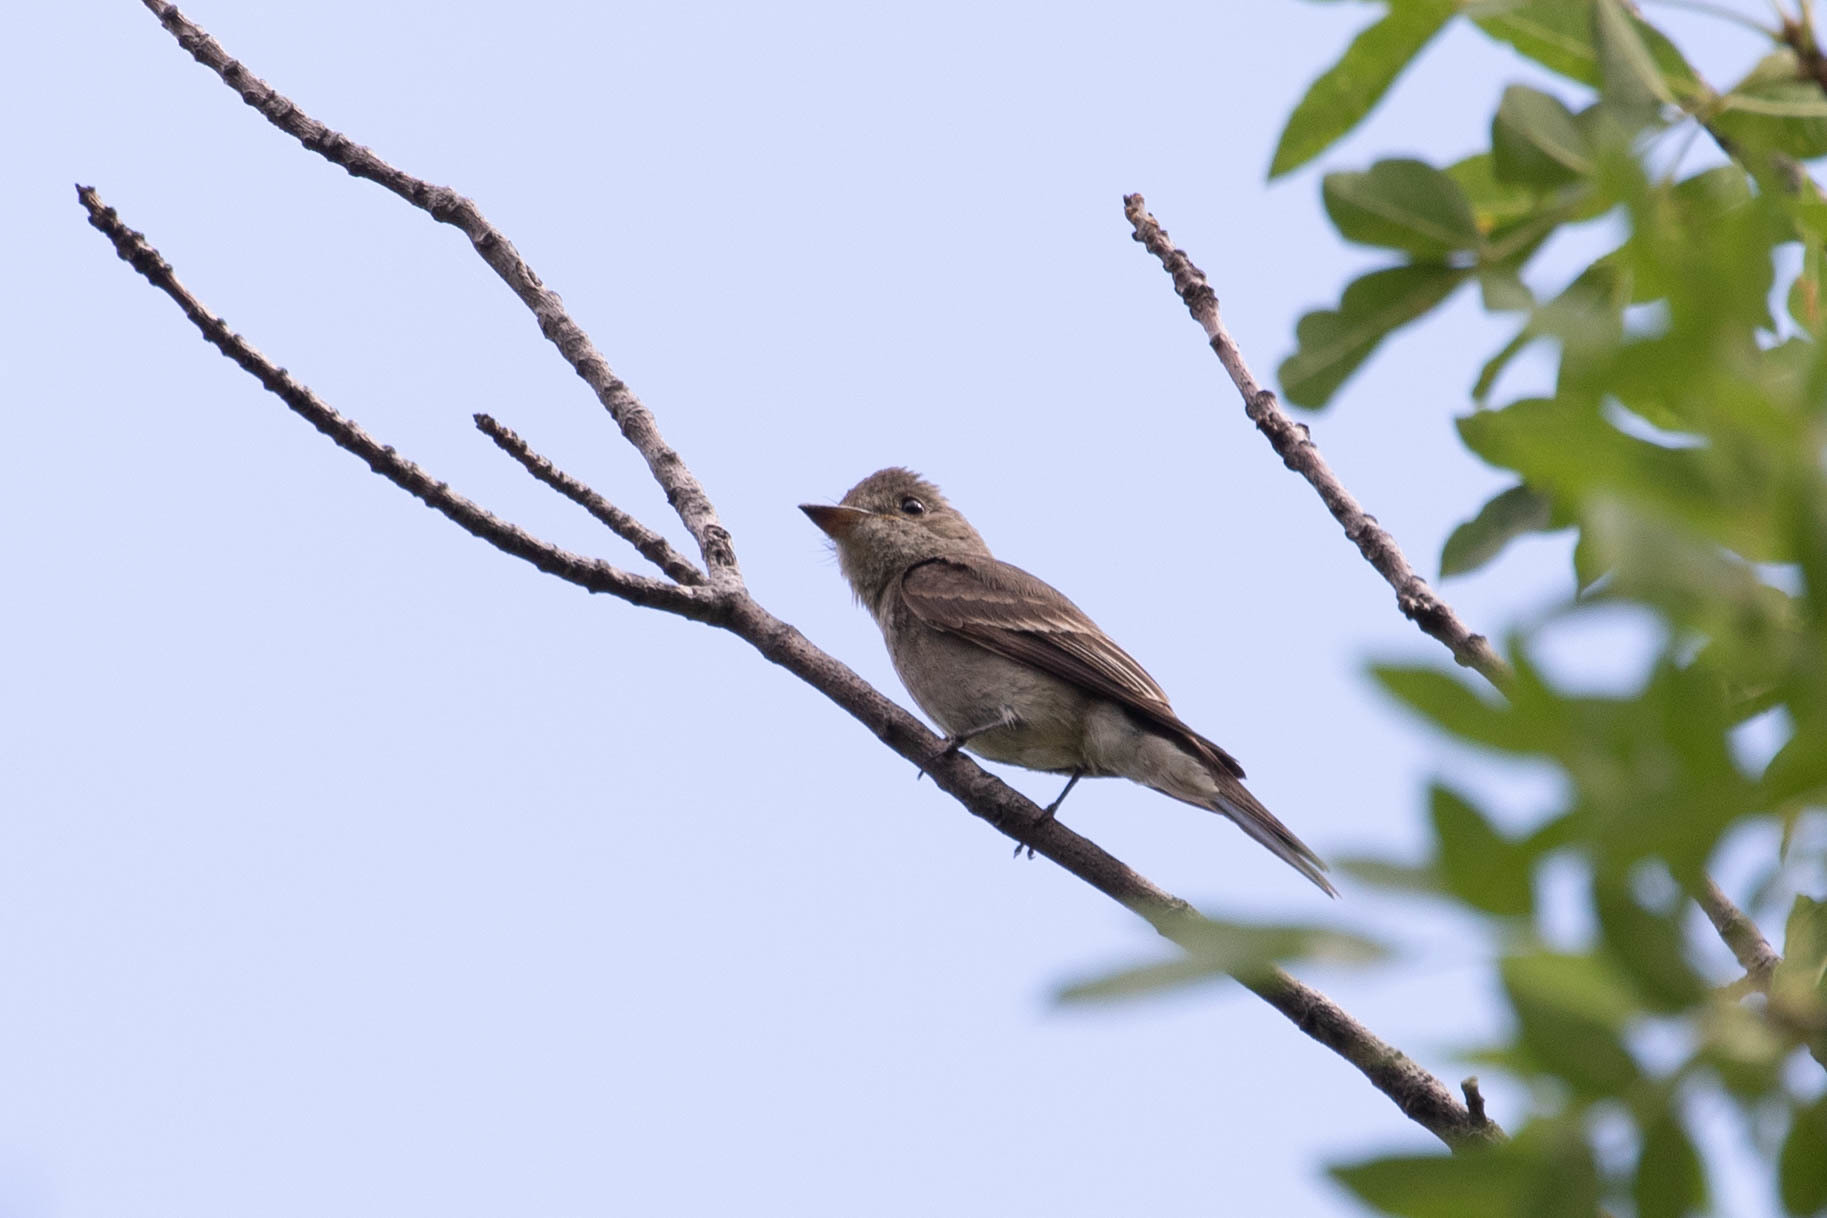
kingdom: Animalia
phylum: Chordata
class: Aves
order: Passeriformes
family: Tyrannidae
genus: Contopus
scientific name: Contopus sordidulus
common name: Western wood-pewee
